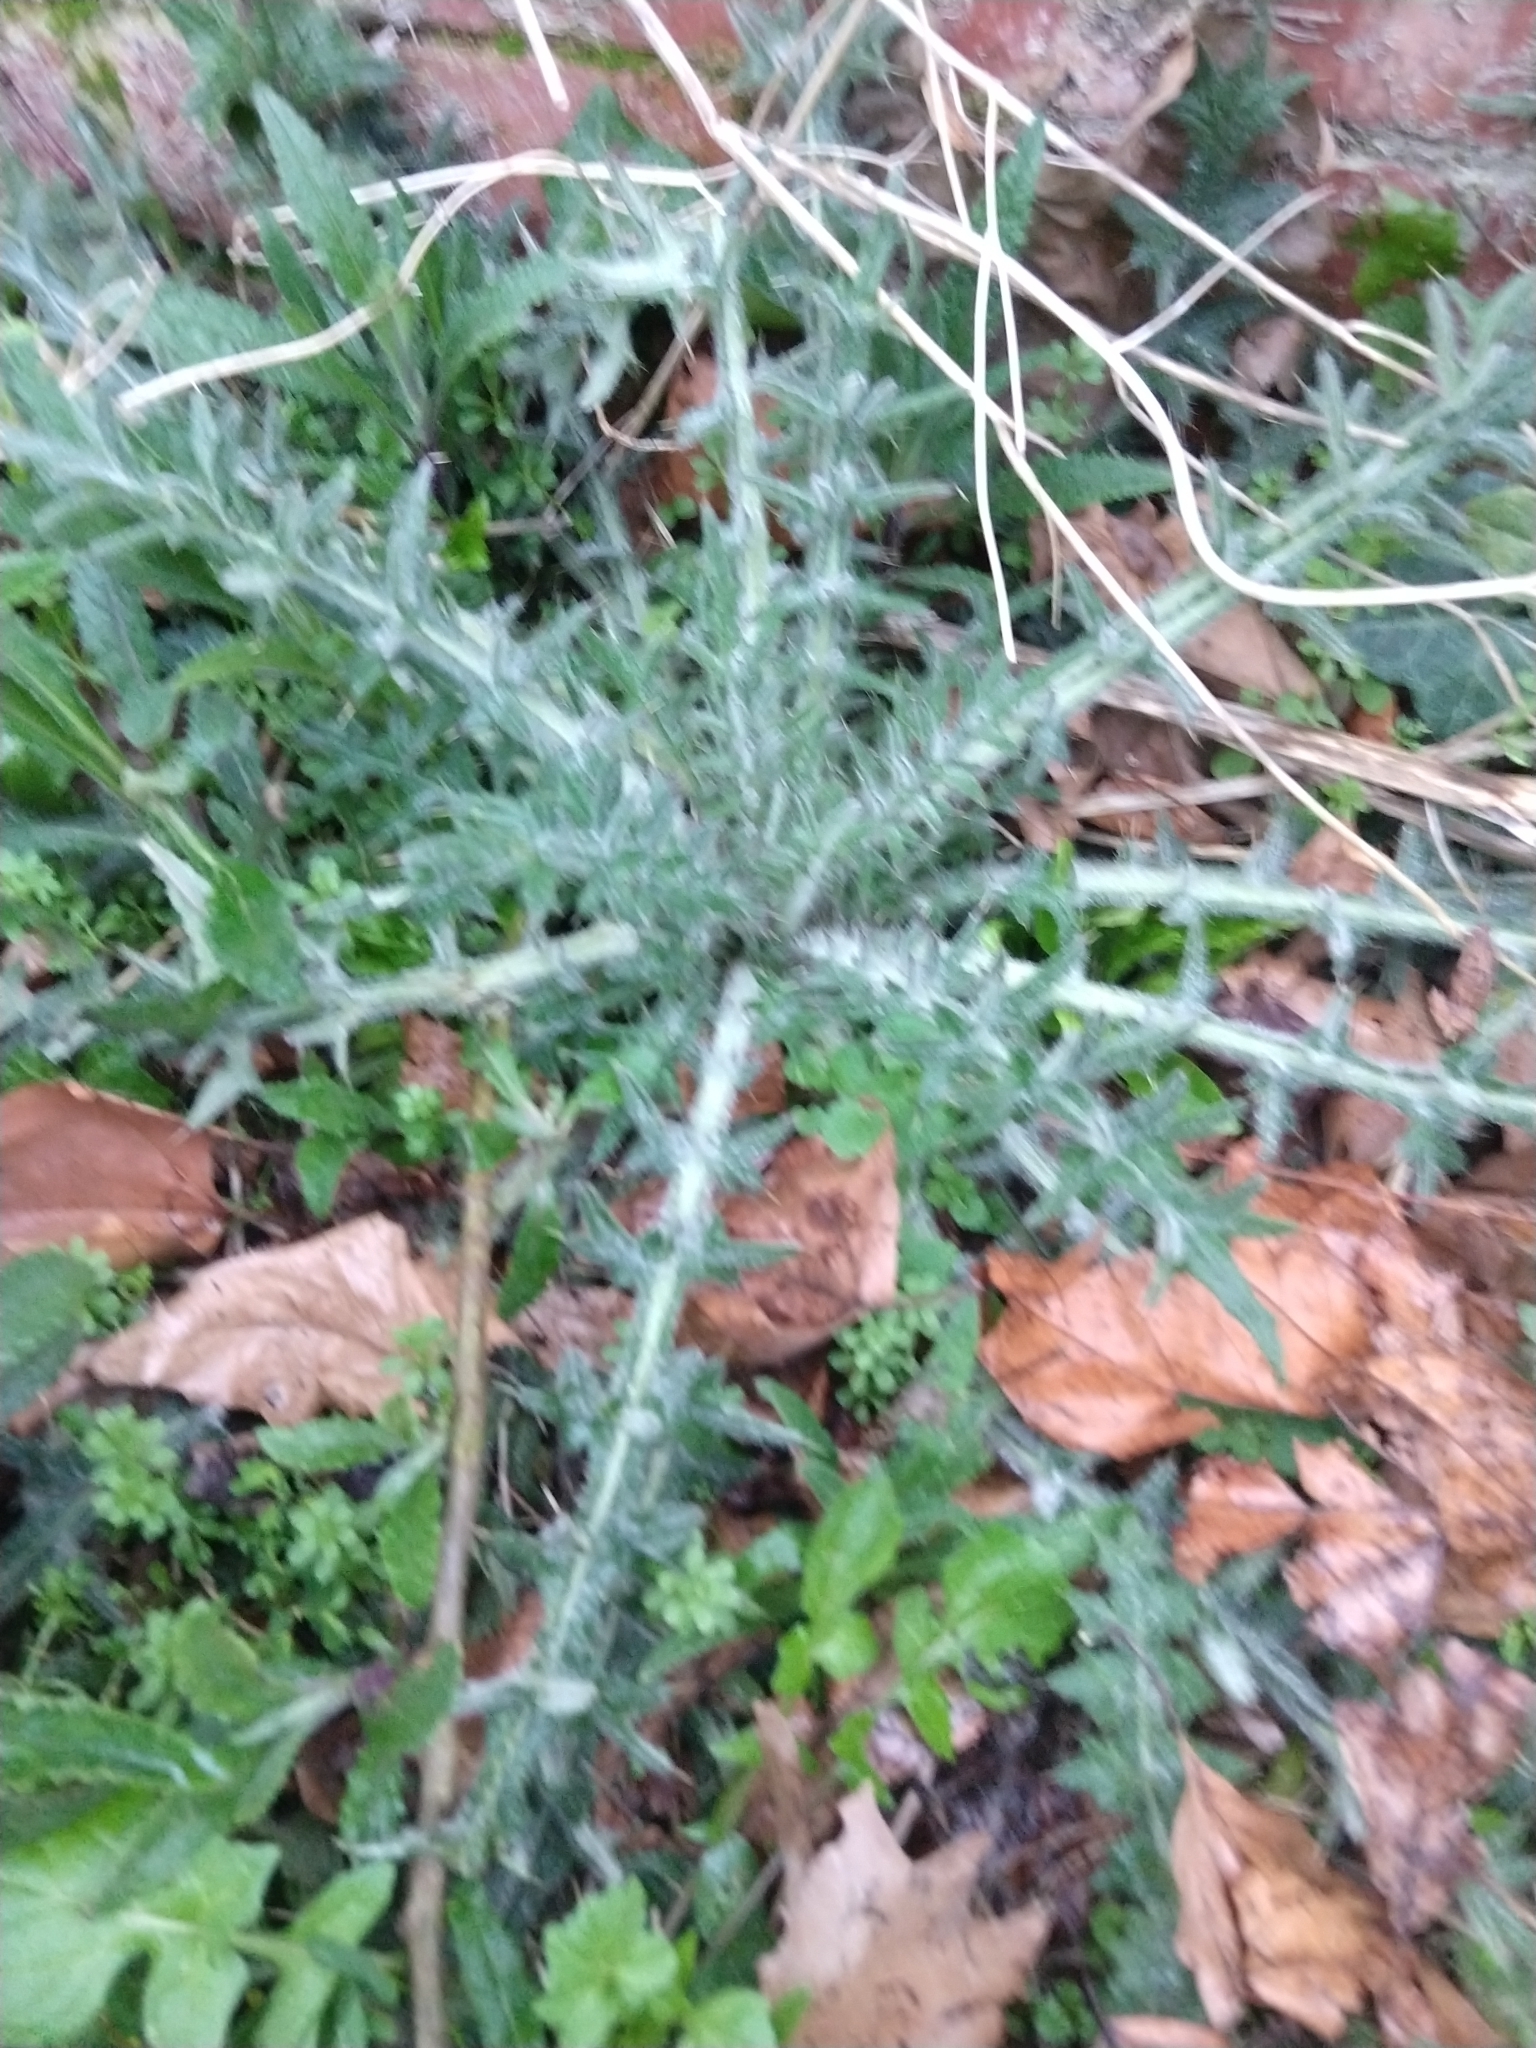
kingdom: Plantae
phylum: Tracheophyta
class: Magnoliopsida
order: Asterales
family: Asteraceae
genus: Cirsium
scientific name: Cirsium vulgare
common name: Bull thistle
